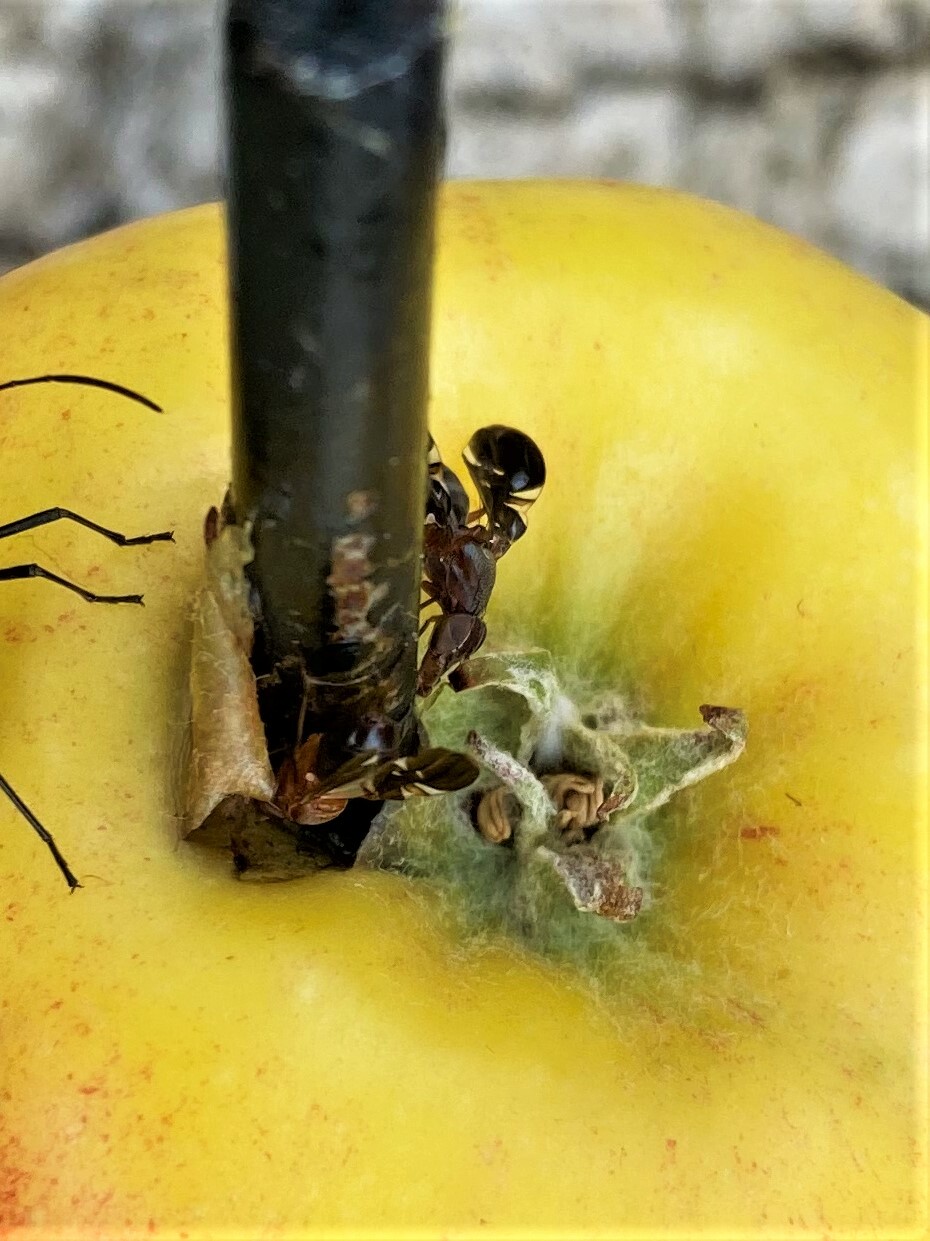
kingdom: Animalia
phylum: Arthropoda
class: Insecta
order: Diptera
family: Ulidiidae
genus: Delphinia
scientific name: Delphinia picta
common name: Common picture-winged fly
